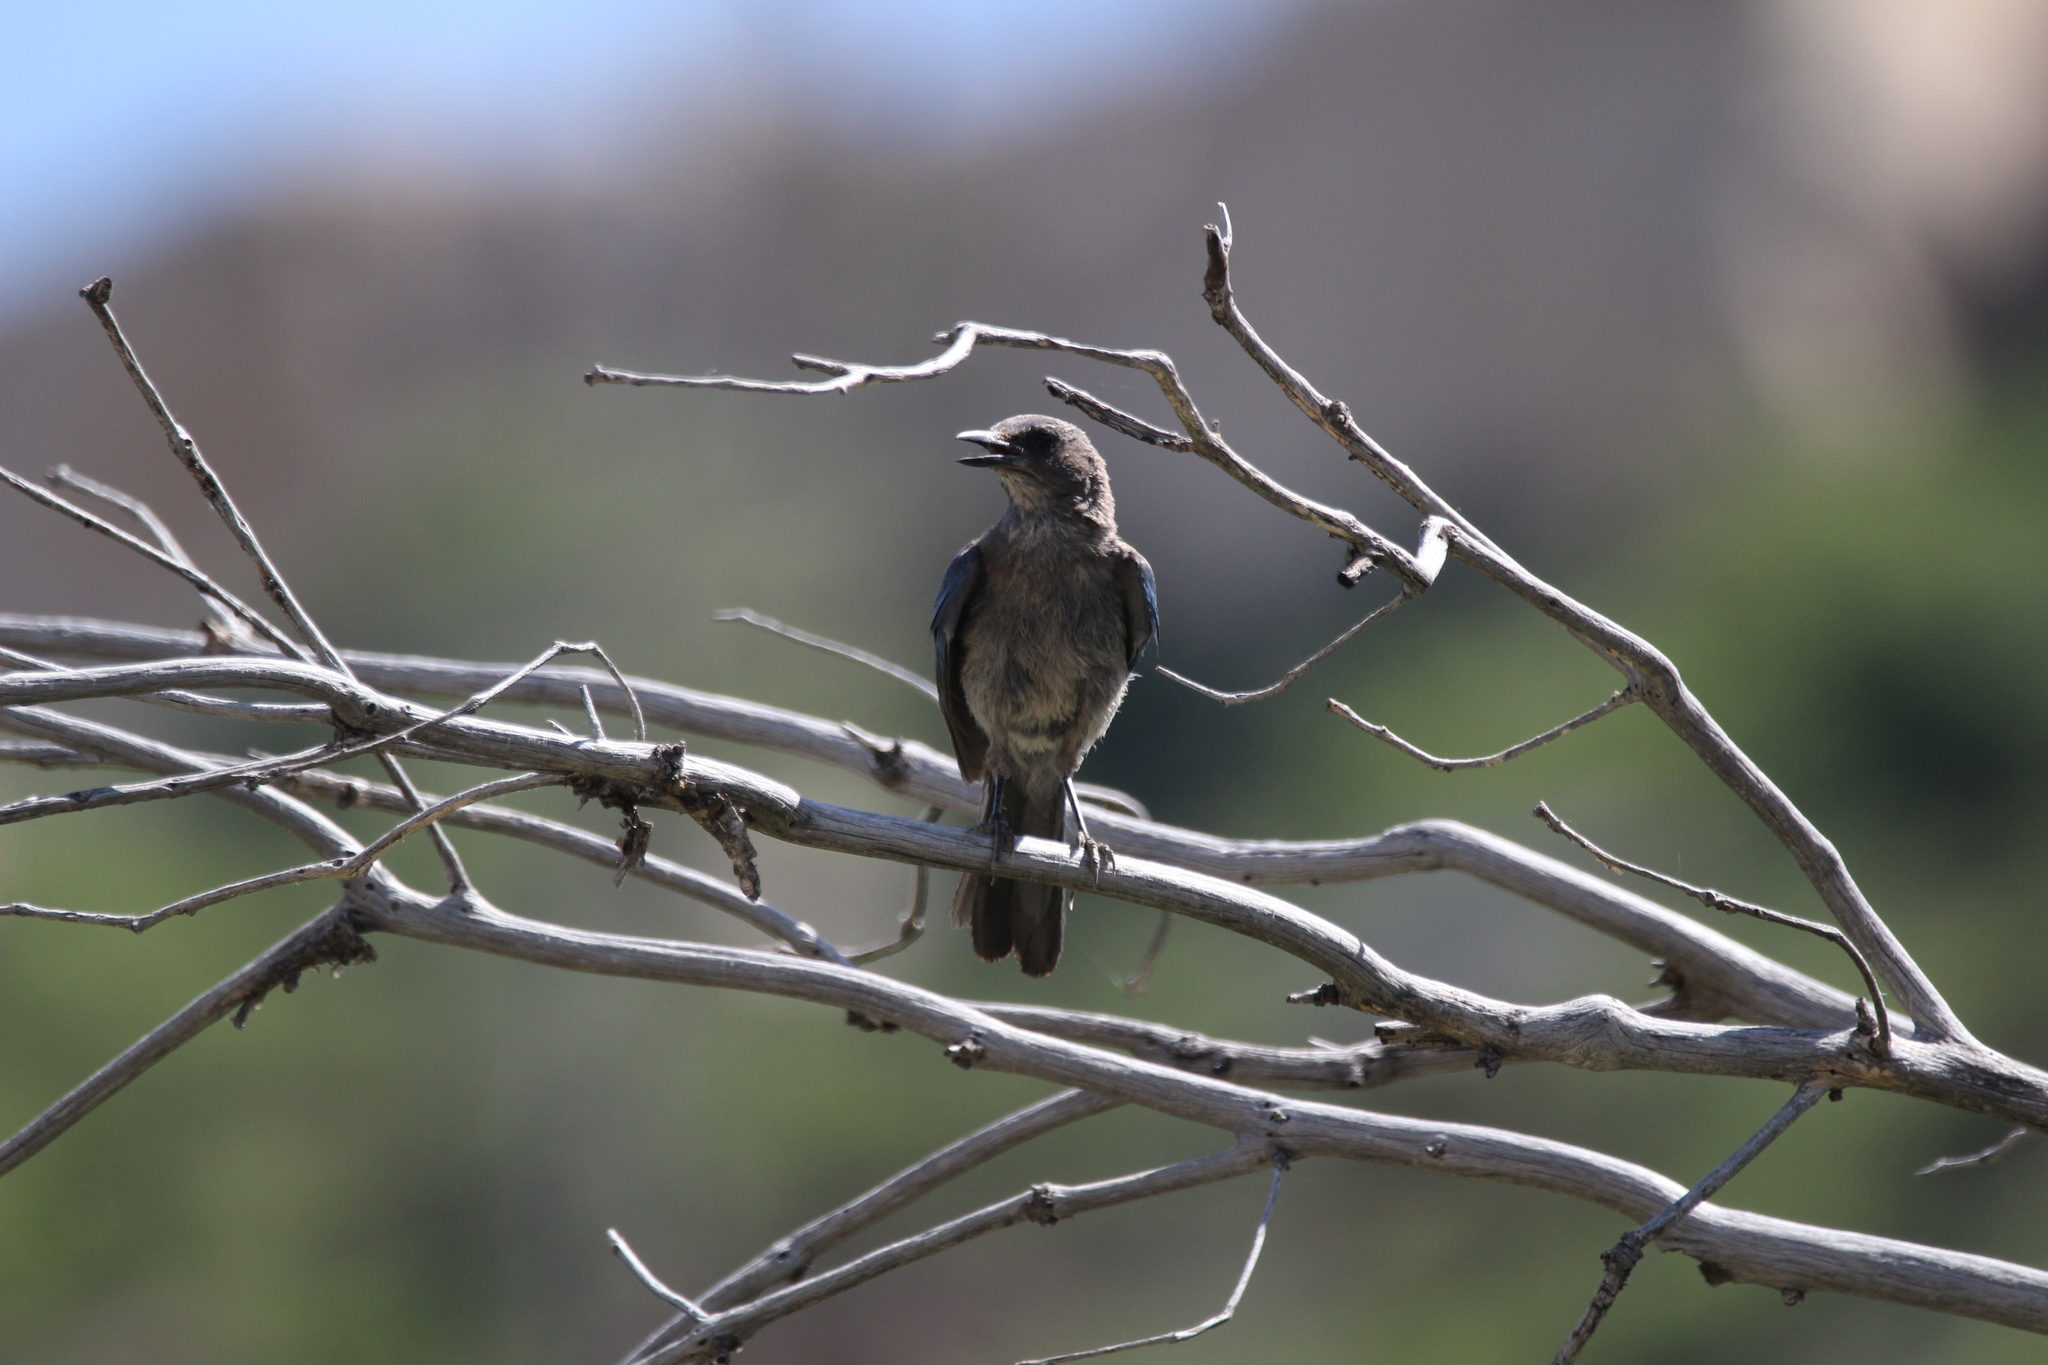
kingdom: Animalia
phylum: Chordata
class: Aves
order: Passeriformes
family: Corvidae
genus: Aphelocoma
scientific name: Aphelocoma woodhouseii
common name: Woodhouse's scrub-jay
